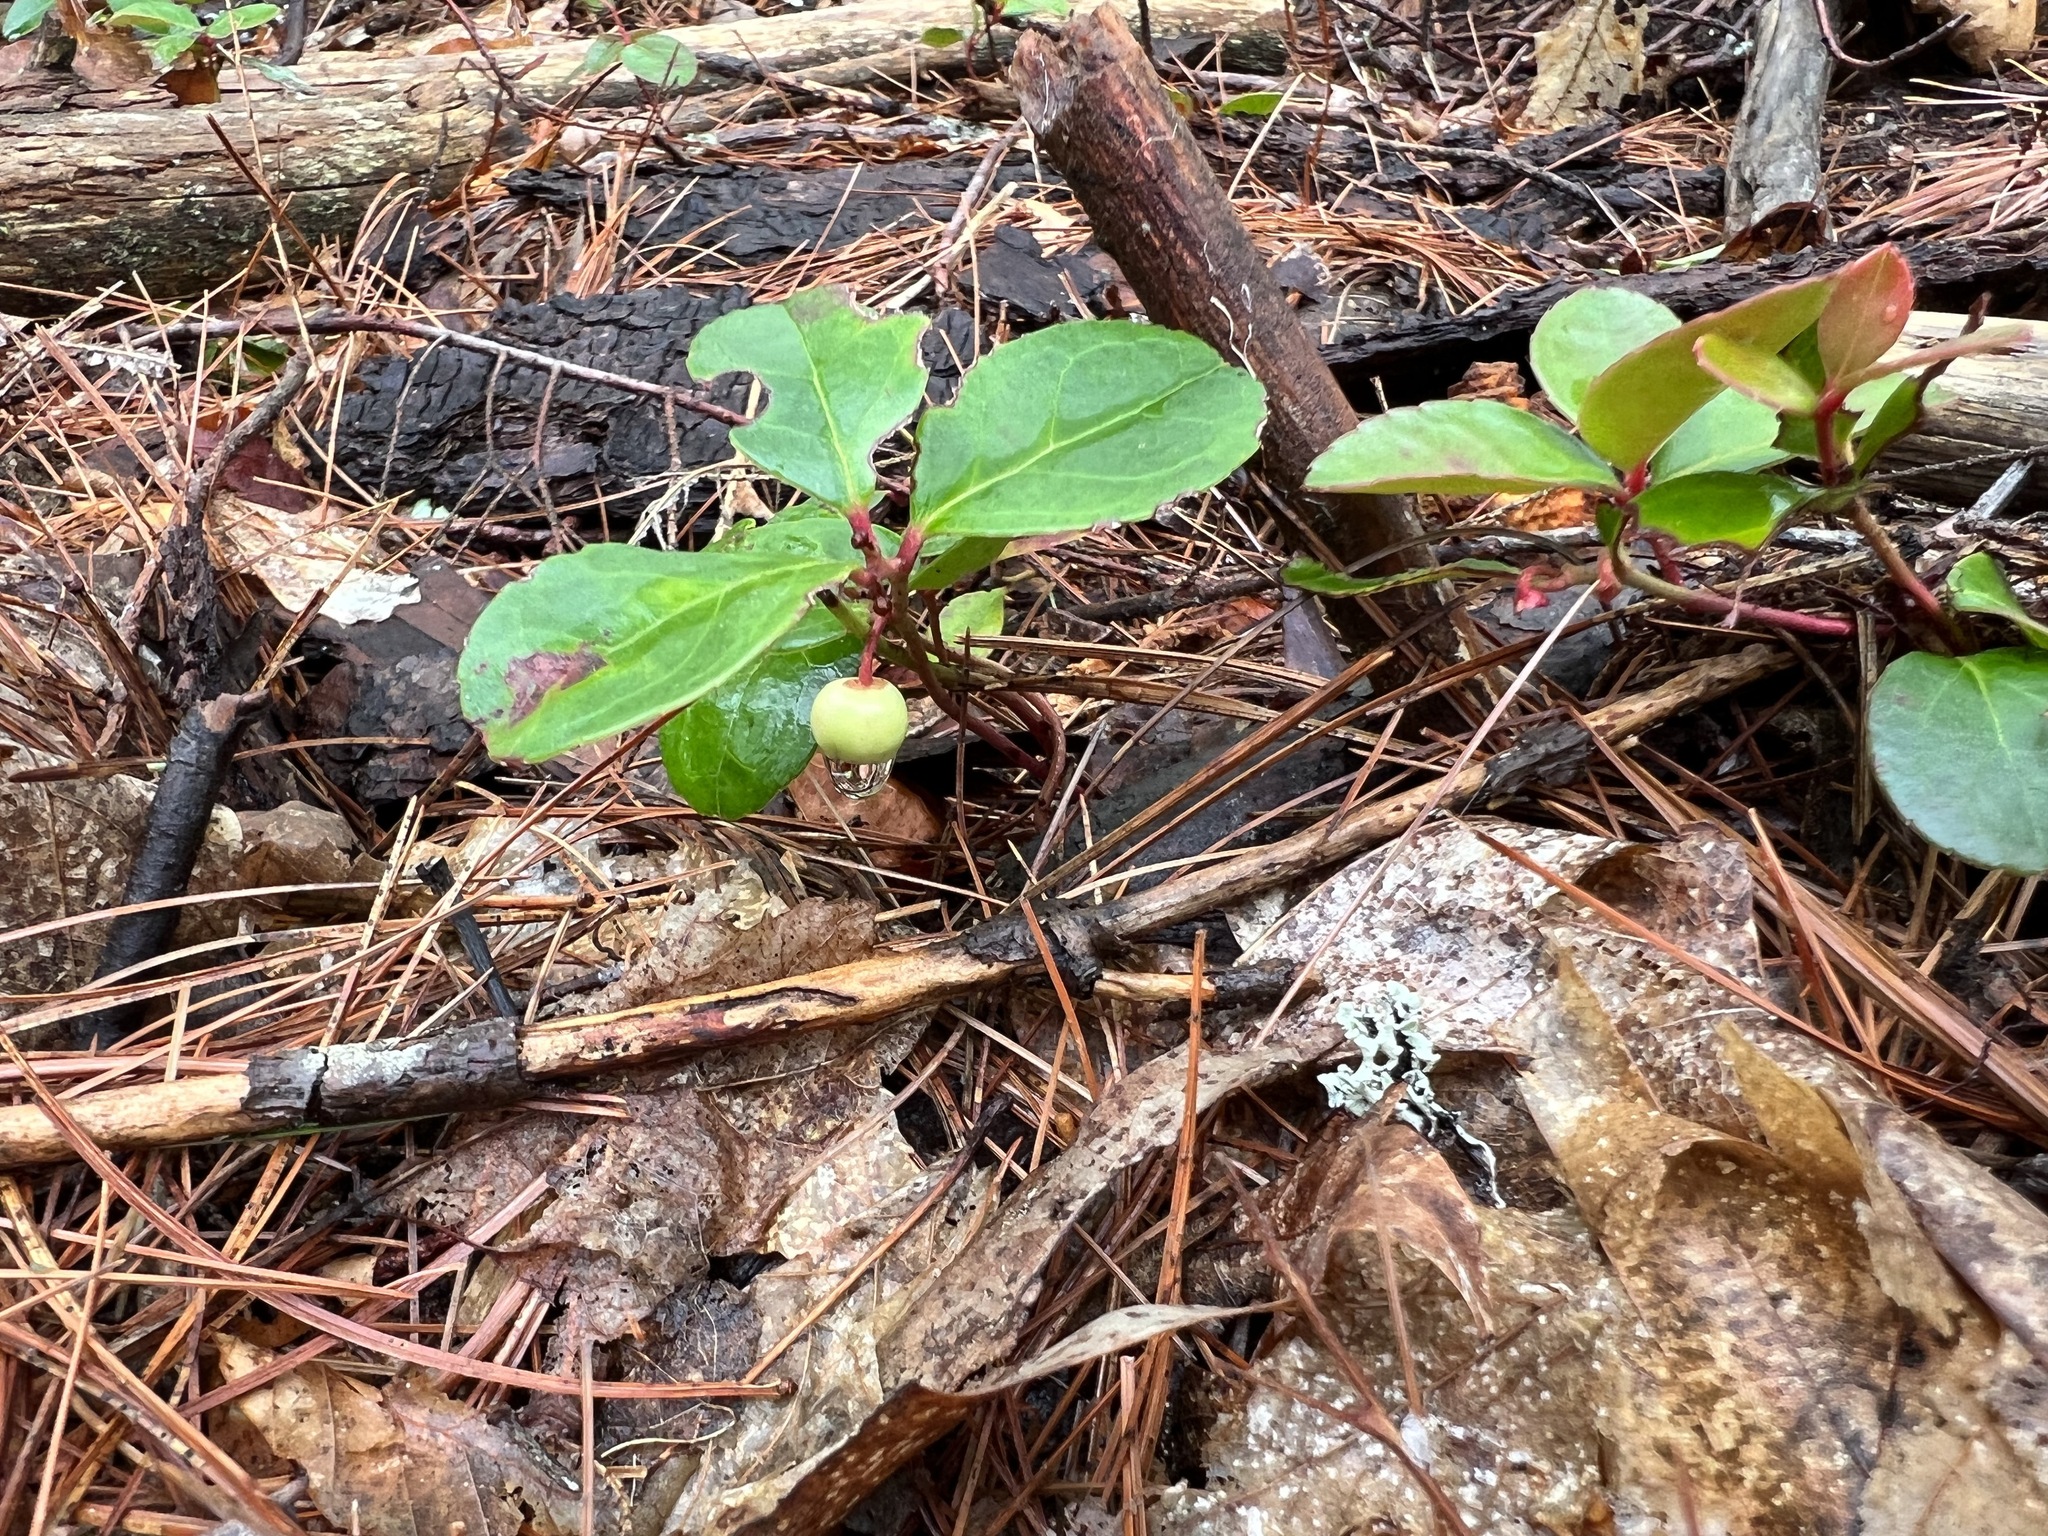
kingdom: Plantae
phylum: Tracheophyta
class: Magnoliopsida
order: Ericales
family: Ericaceae
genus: Gaultheria
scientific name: Gaultheria procumbens
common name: Checkerberry
